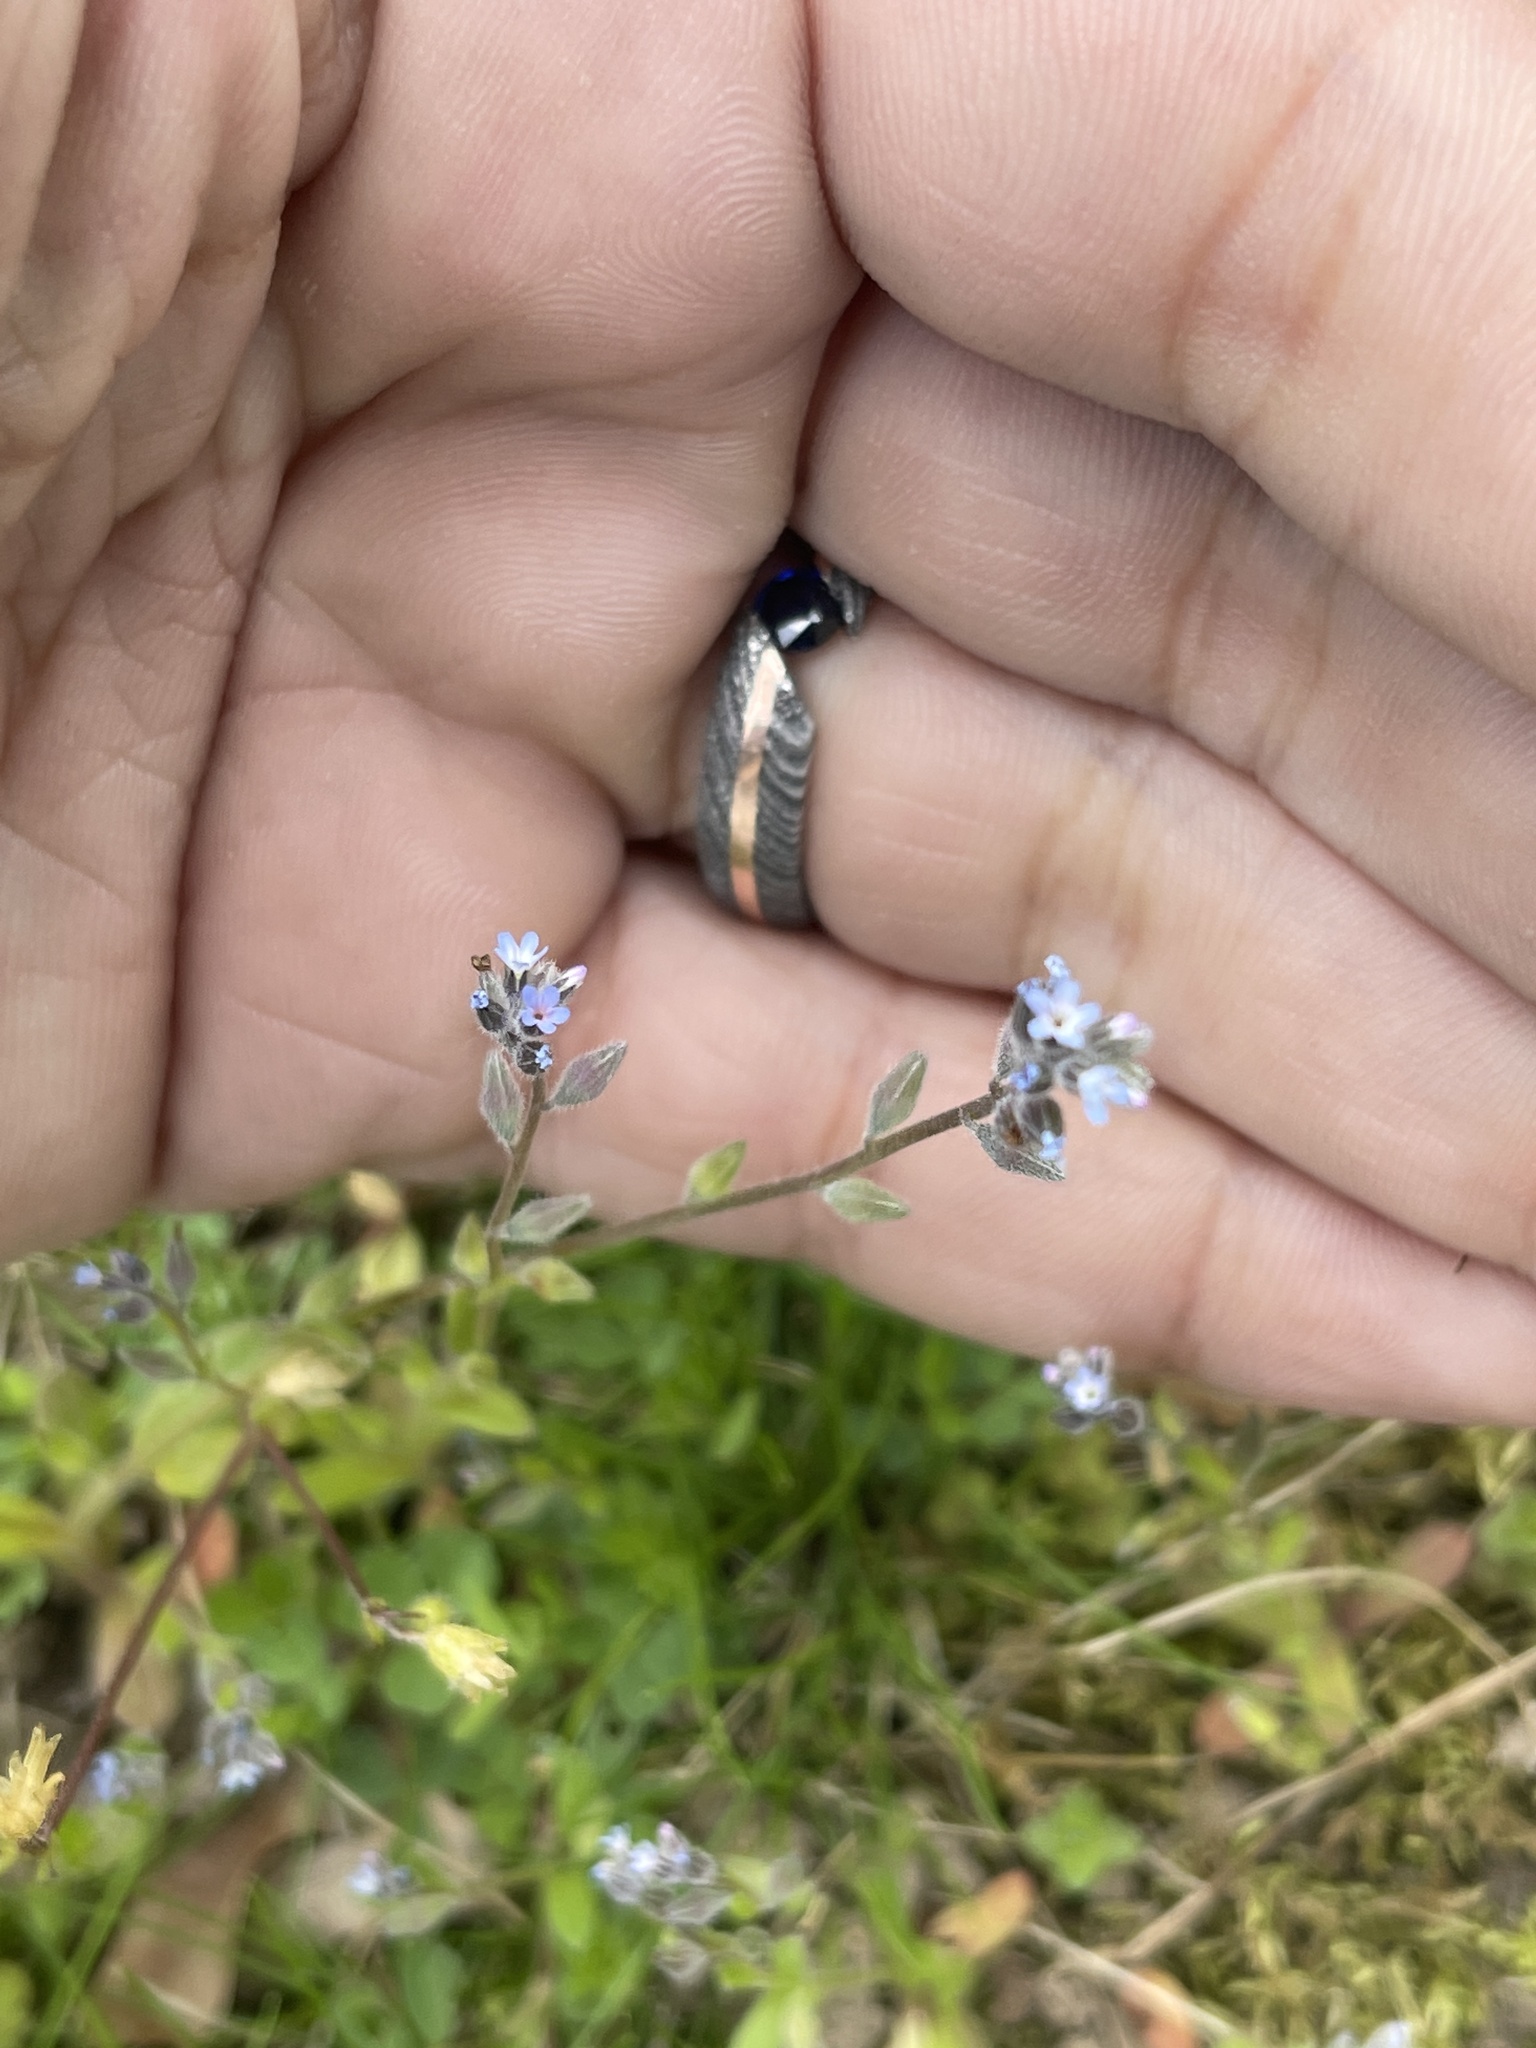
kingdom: Plantae
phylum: Tracheophyta
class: Magnoliopsida
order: Boraginales
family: Boraginaceae
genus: Myosotis
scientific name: Myosotis stricta
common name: Strict forget-me-not
